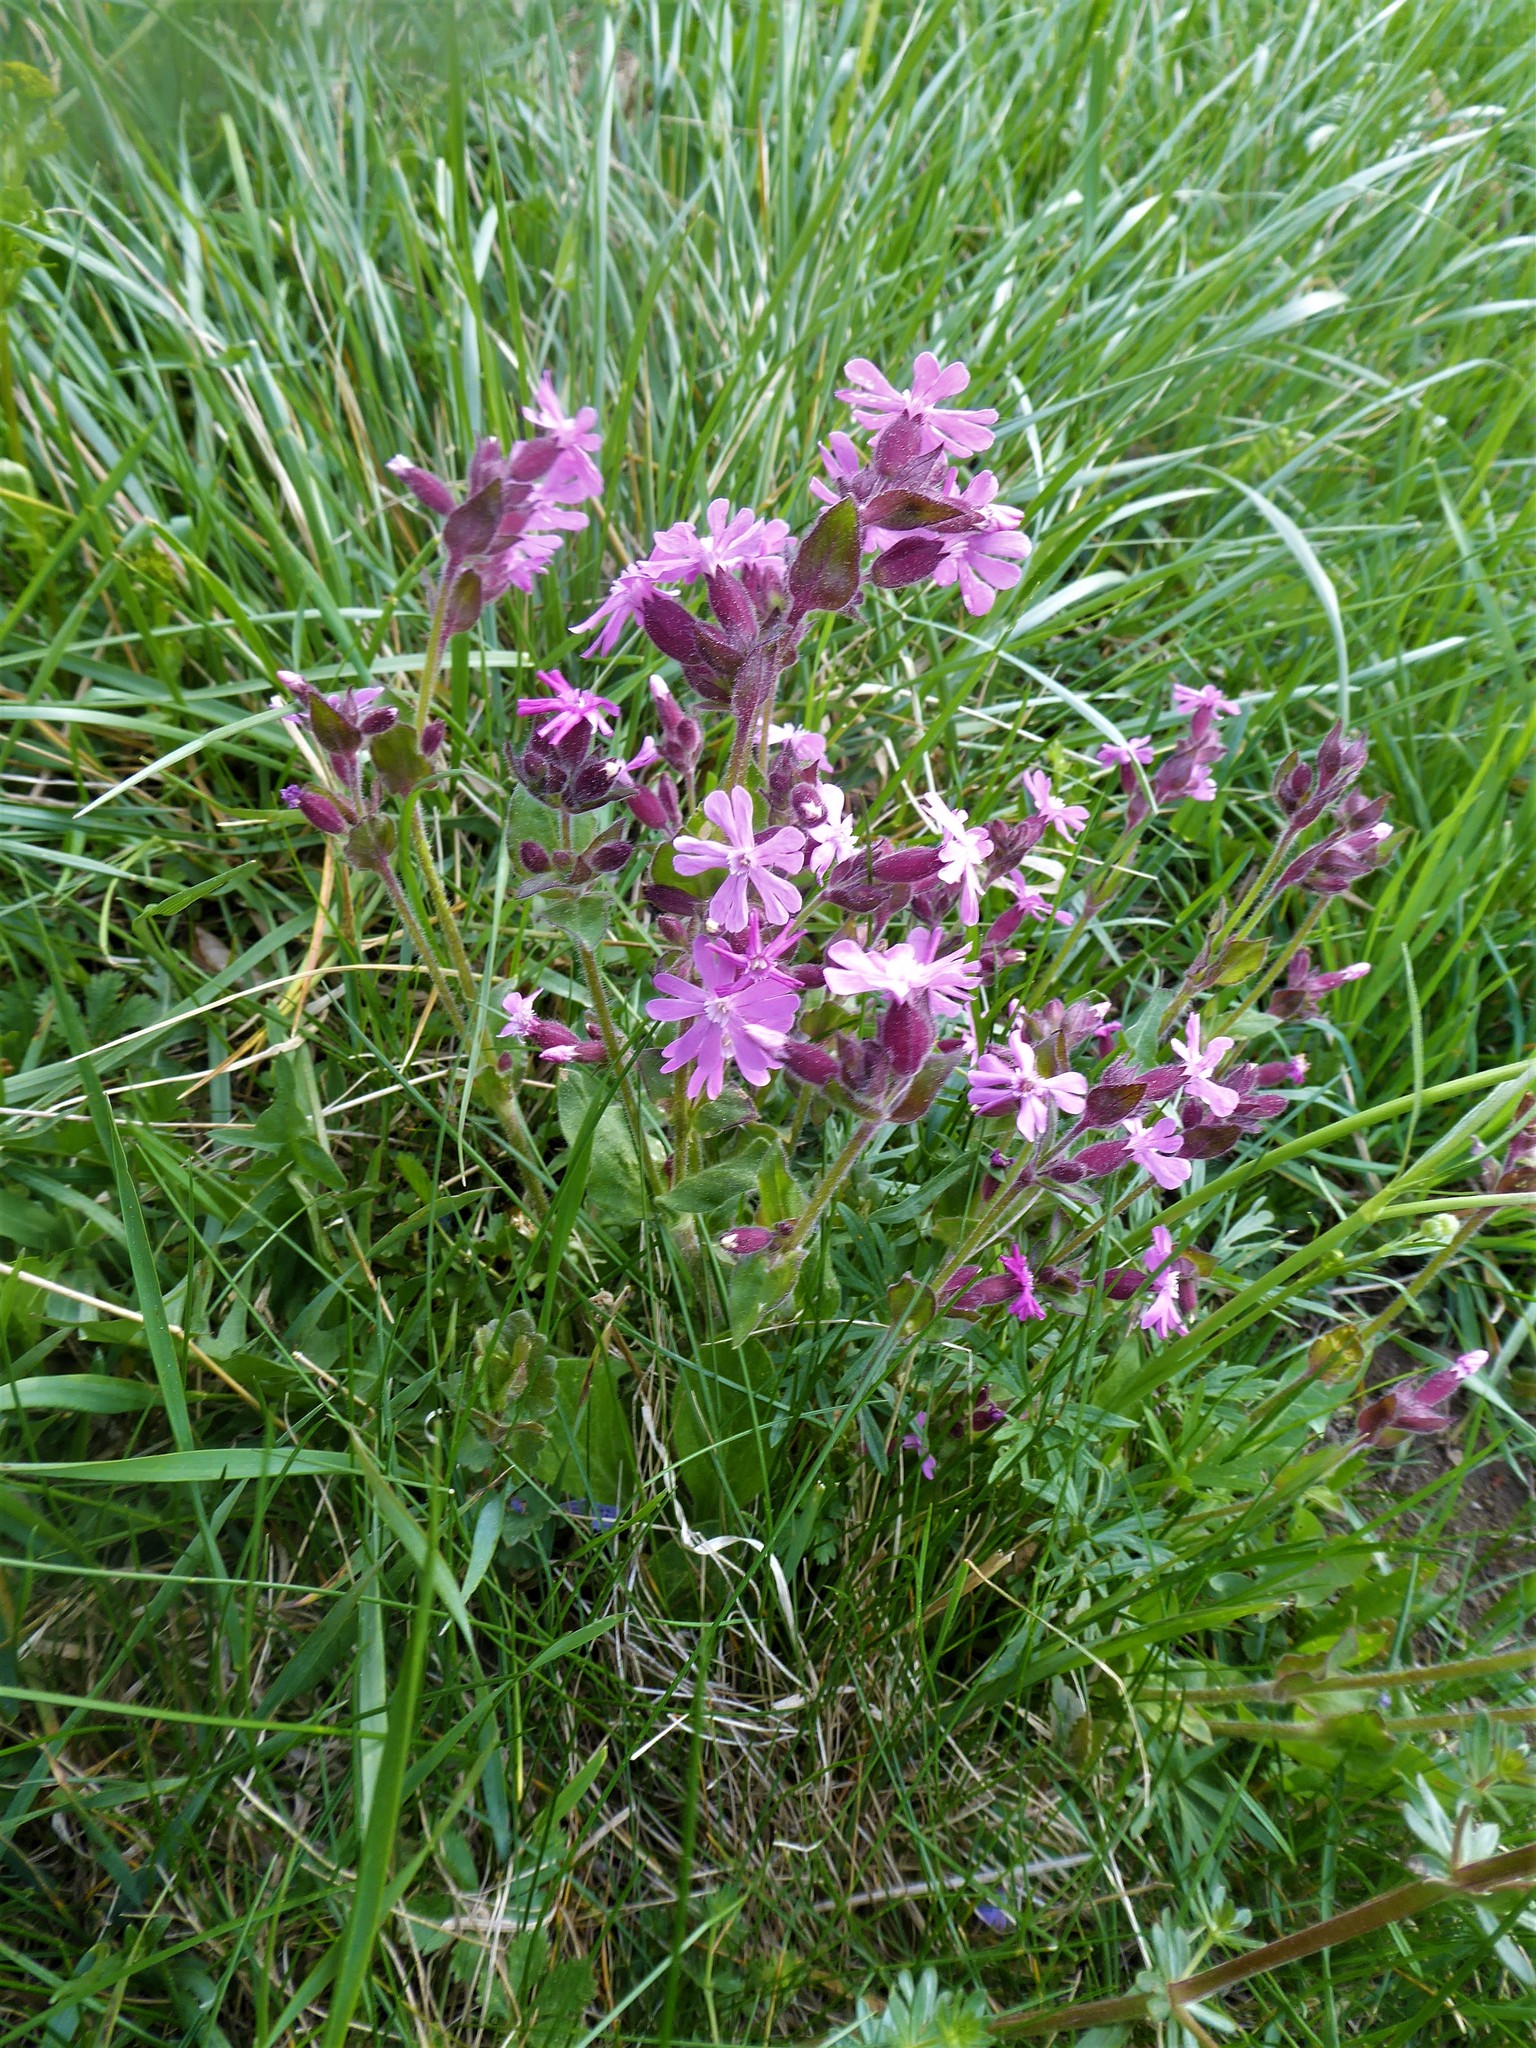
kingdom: Plantae
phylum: Tracheophyta
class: Magnoliopsida
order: Caryophyllales
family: Caryophyllaceae
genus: Silene
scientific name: Silene dioica
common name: Red campion
